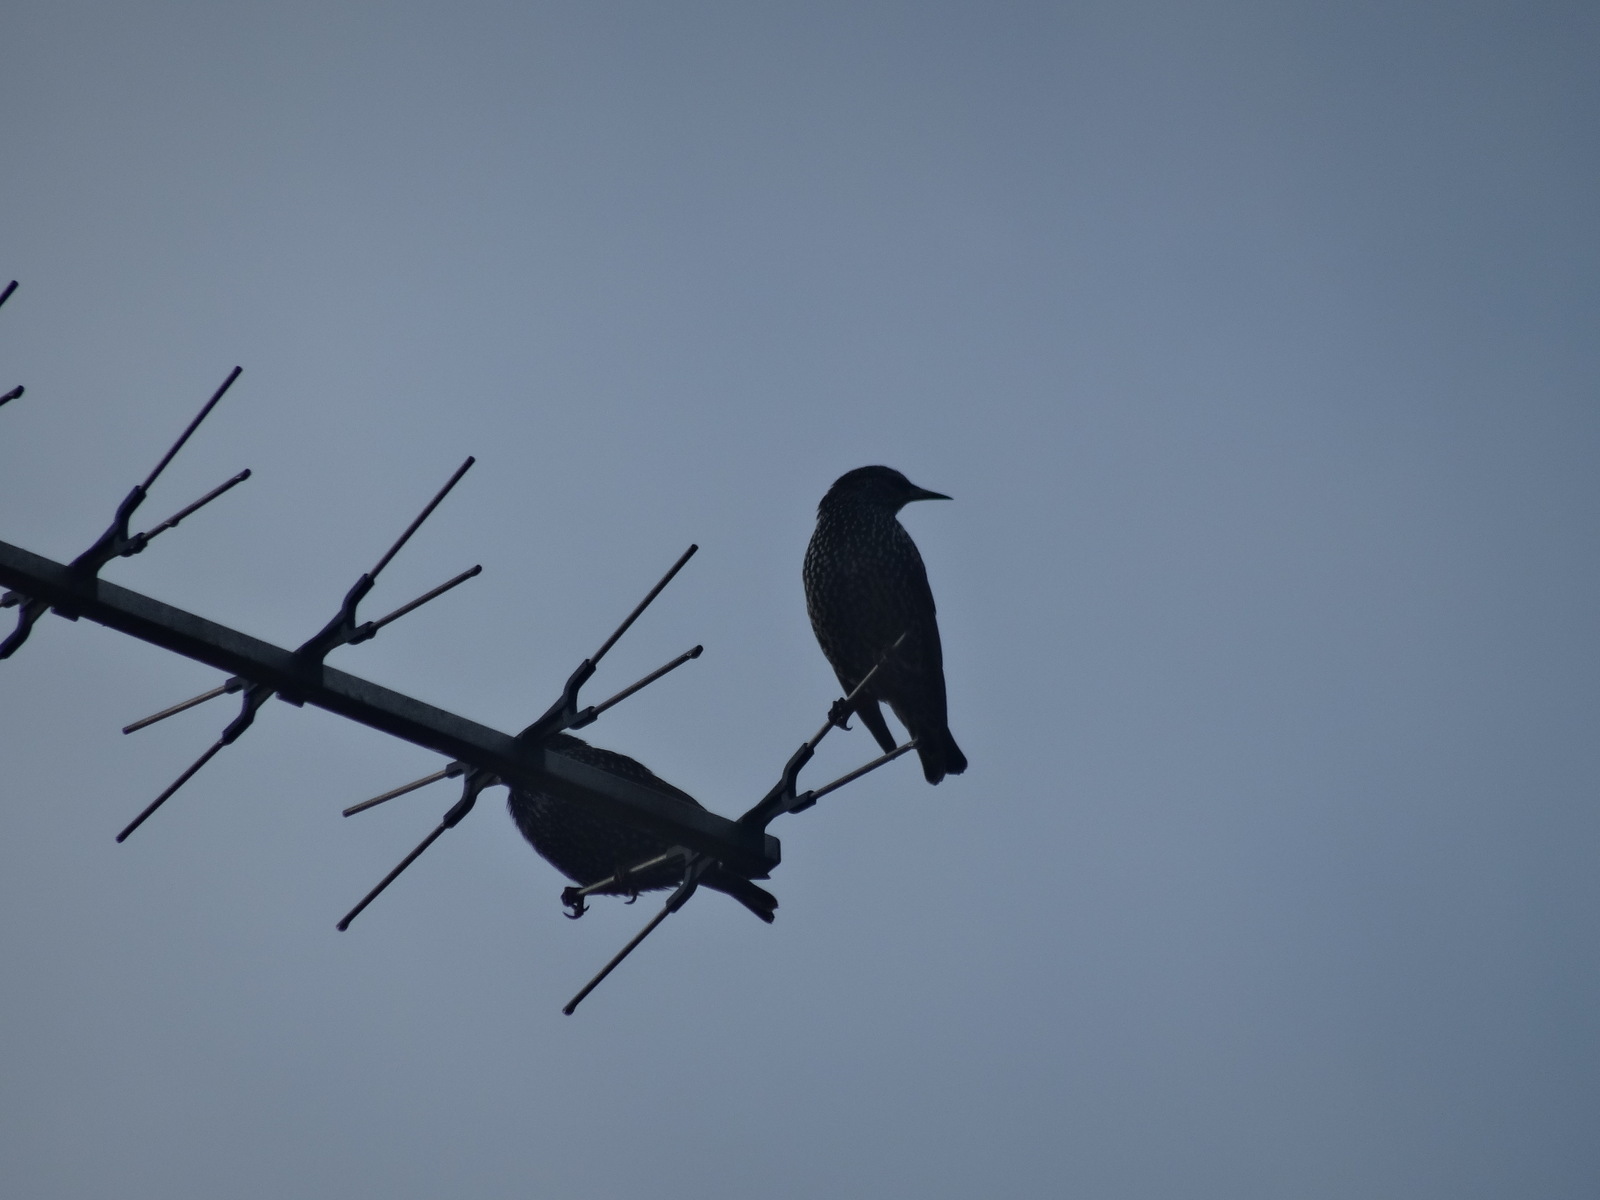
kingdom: Animalia
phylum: Chordata
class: Aves
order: Passeriformes
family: Sturnidae
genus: Sturnus
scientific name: Sturnus vulgaris
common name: Common starling
